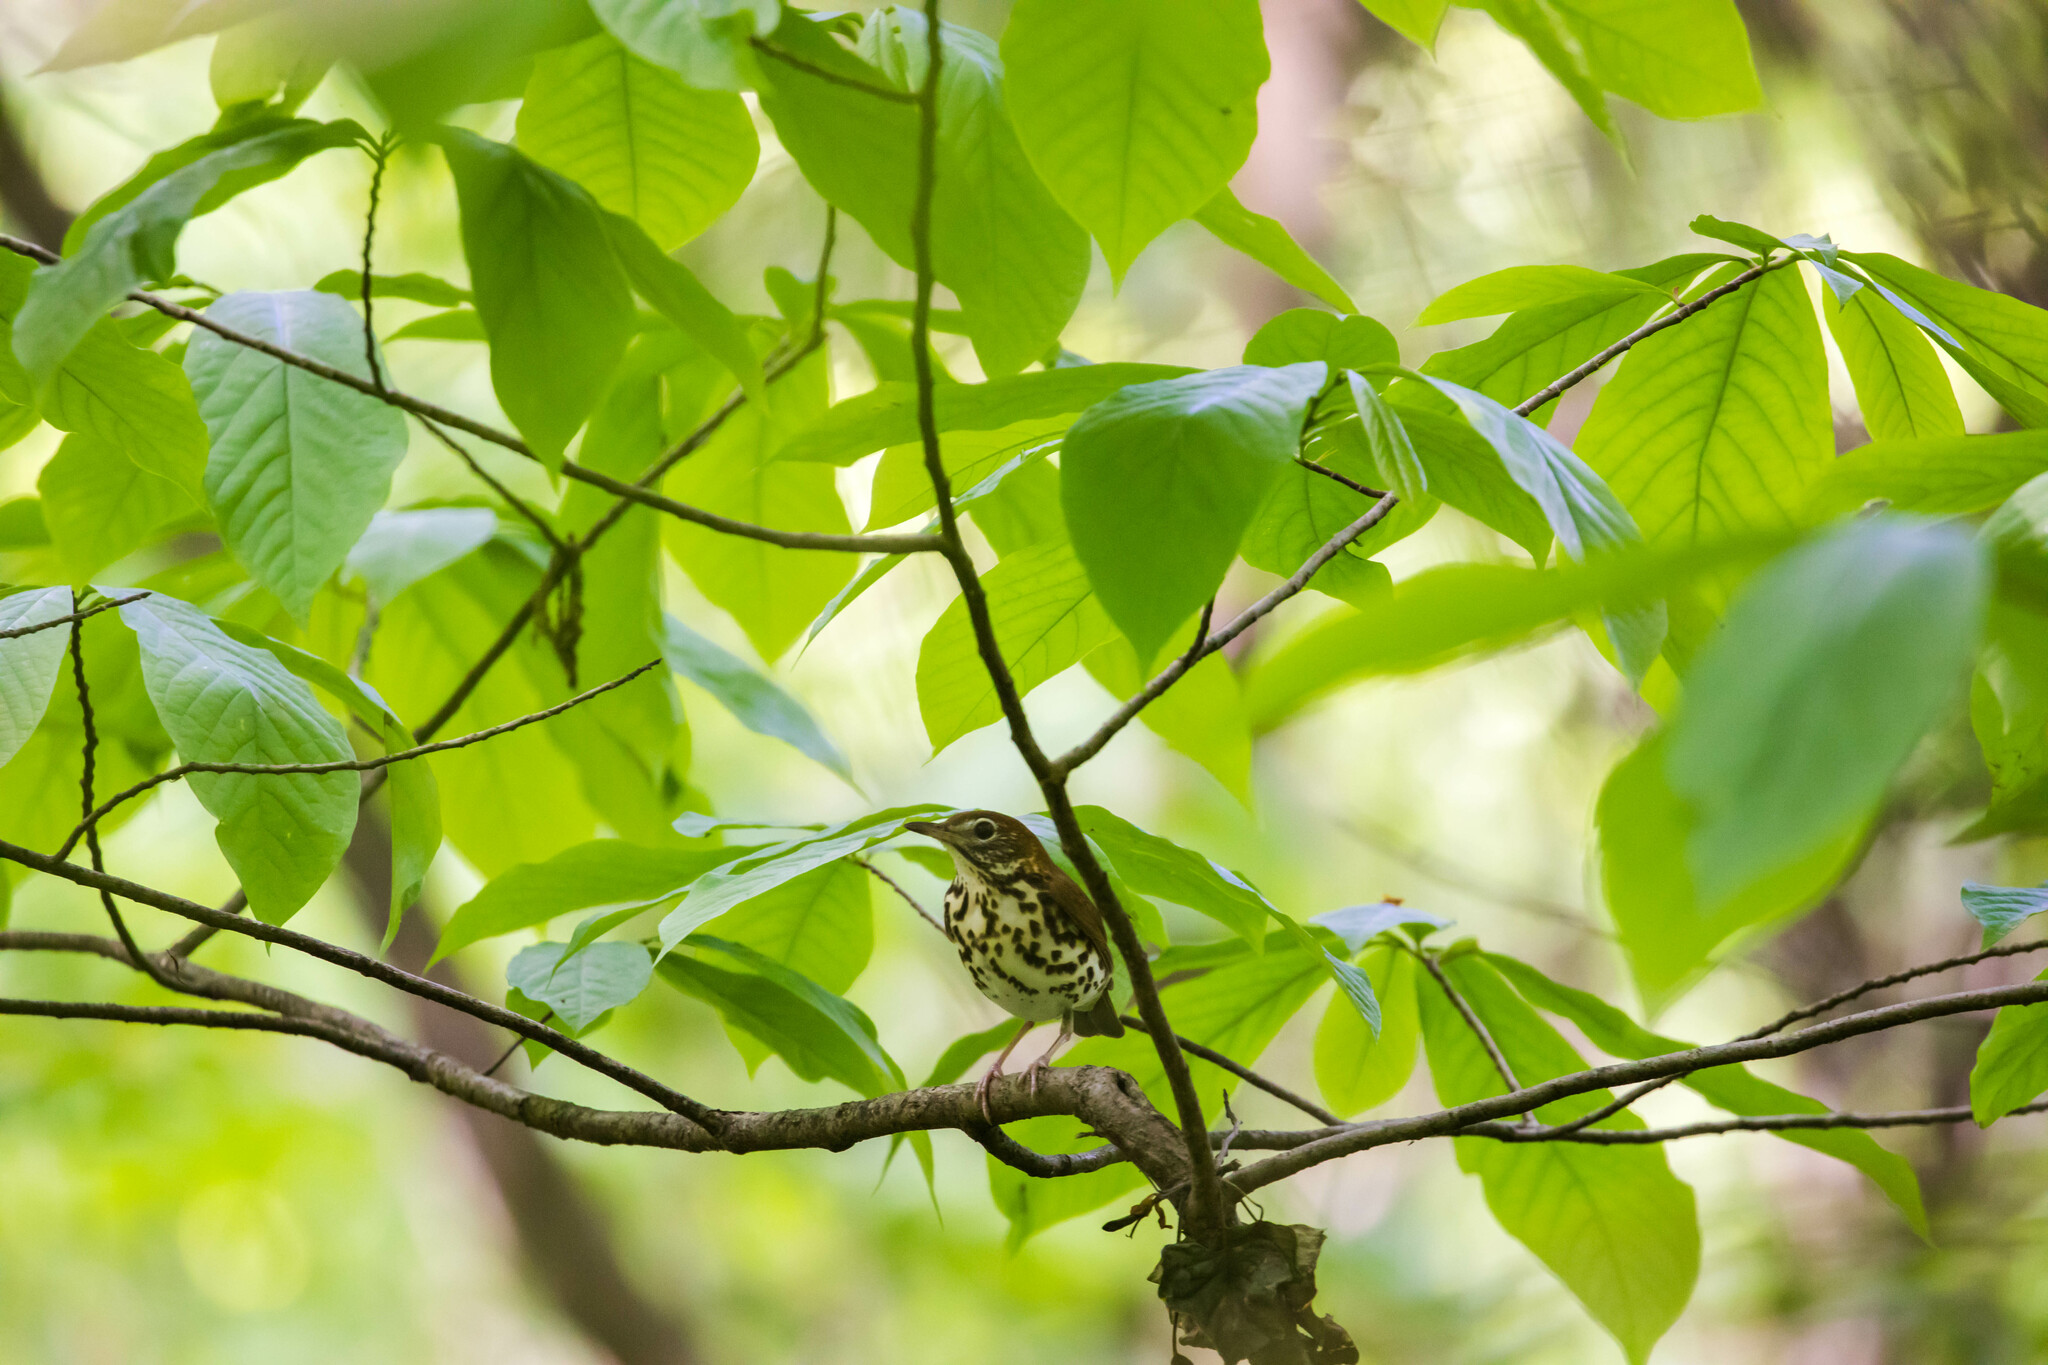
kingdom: Animalia
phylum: Chordata
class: Aves
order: Passeriformes
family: Turdidae
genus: Hylocichla
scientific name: Hylocichla mustelina
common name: Wood thrush
